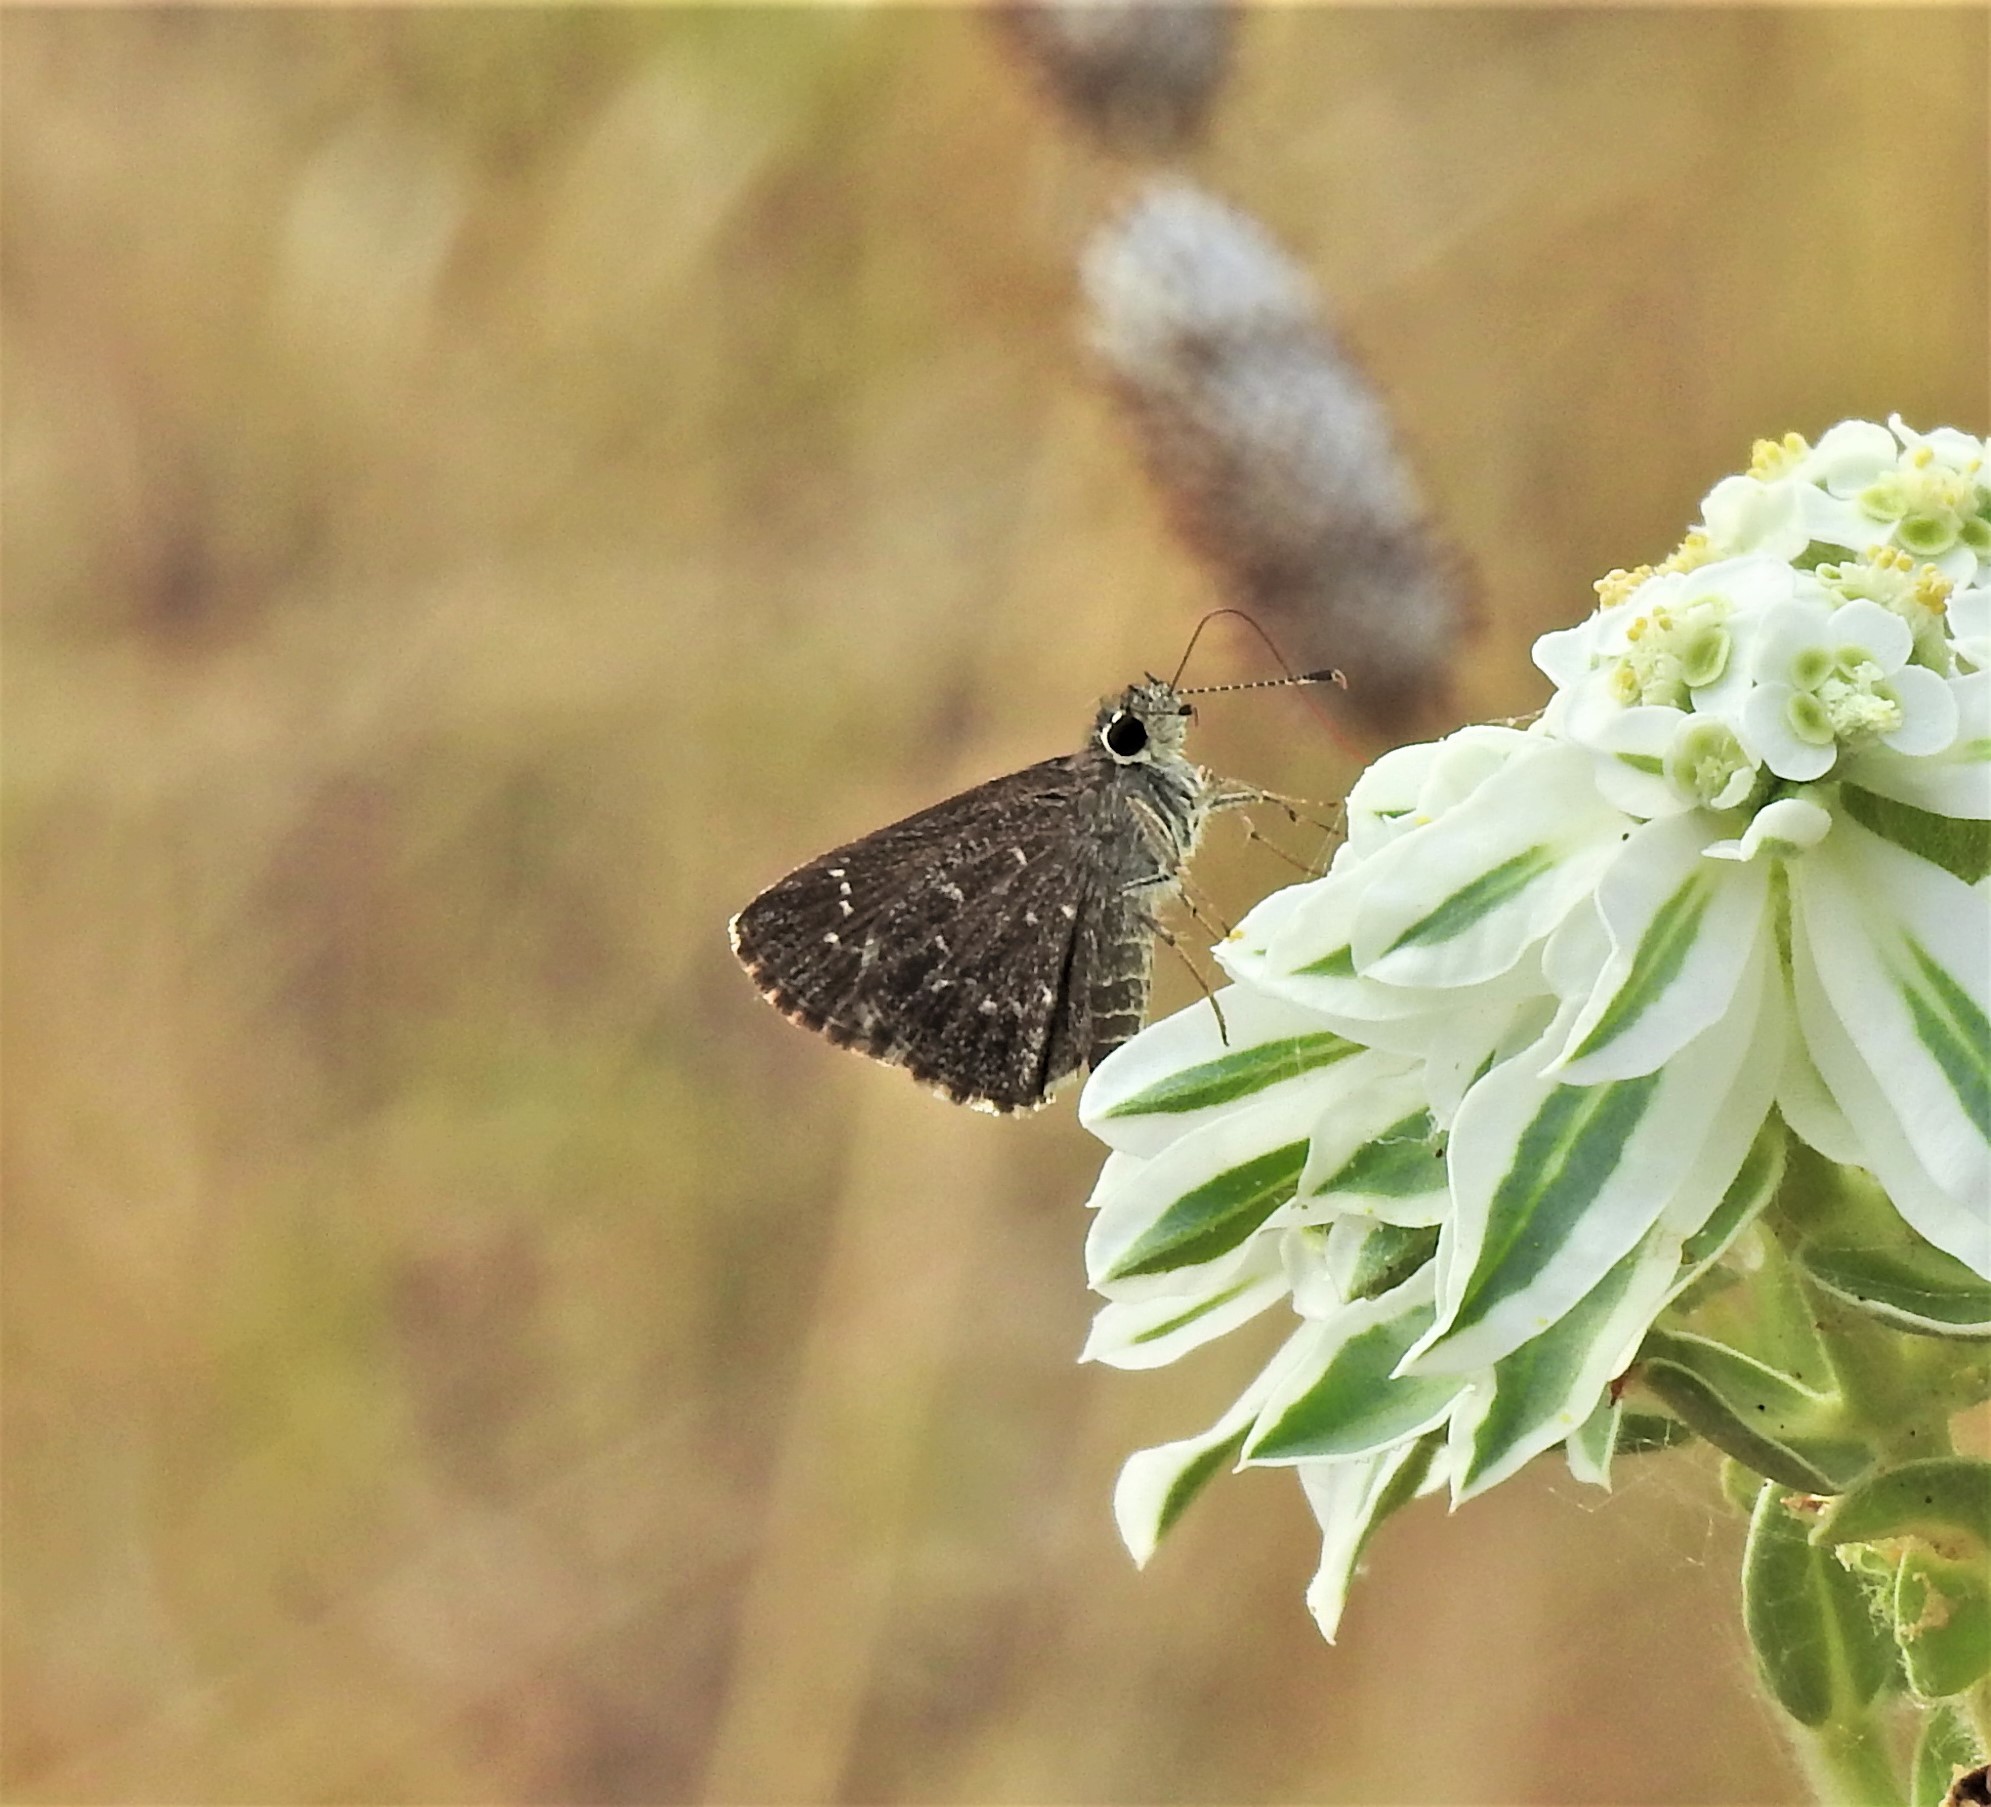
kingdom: Animalia
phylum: Arthropoda
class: Insecta
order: Lepidoptera
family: Hesperiidae
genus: Mastor
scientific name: Mastor celia
